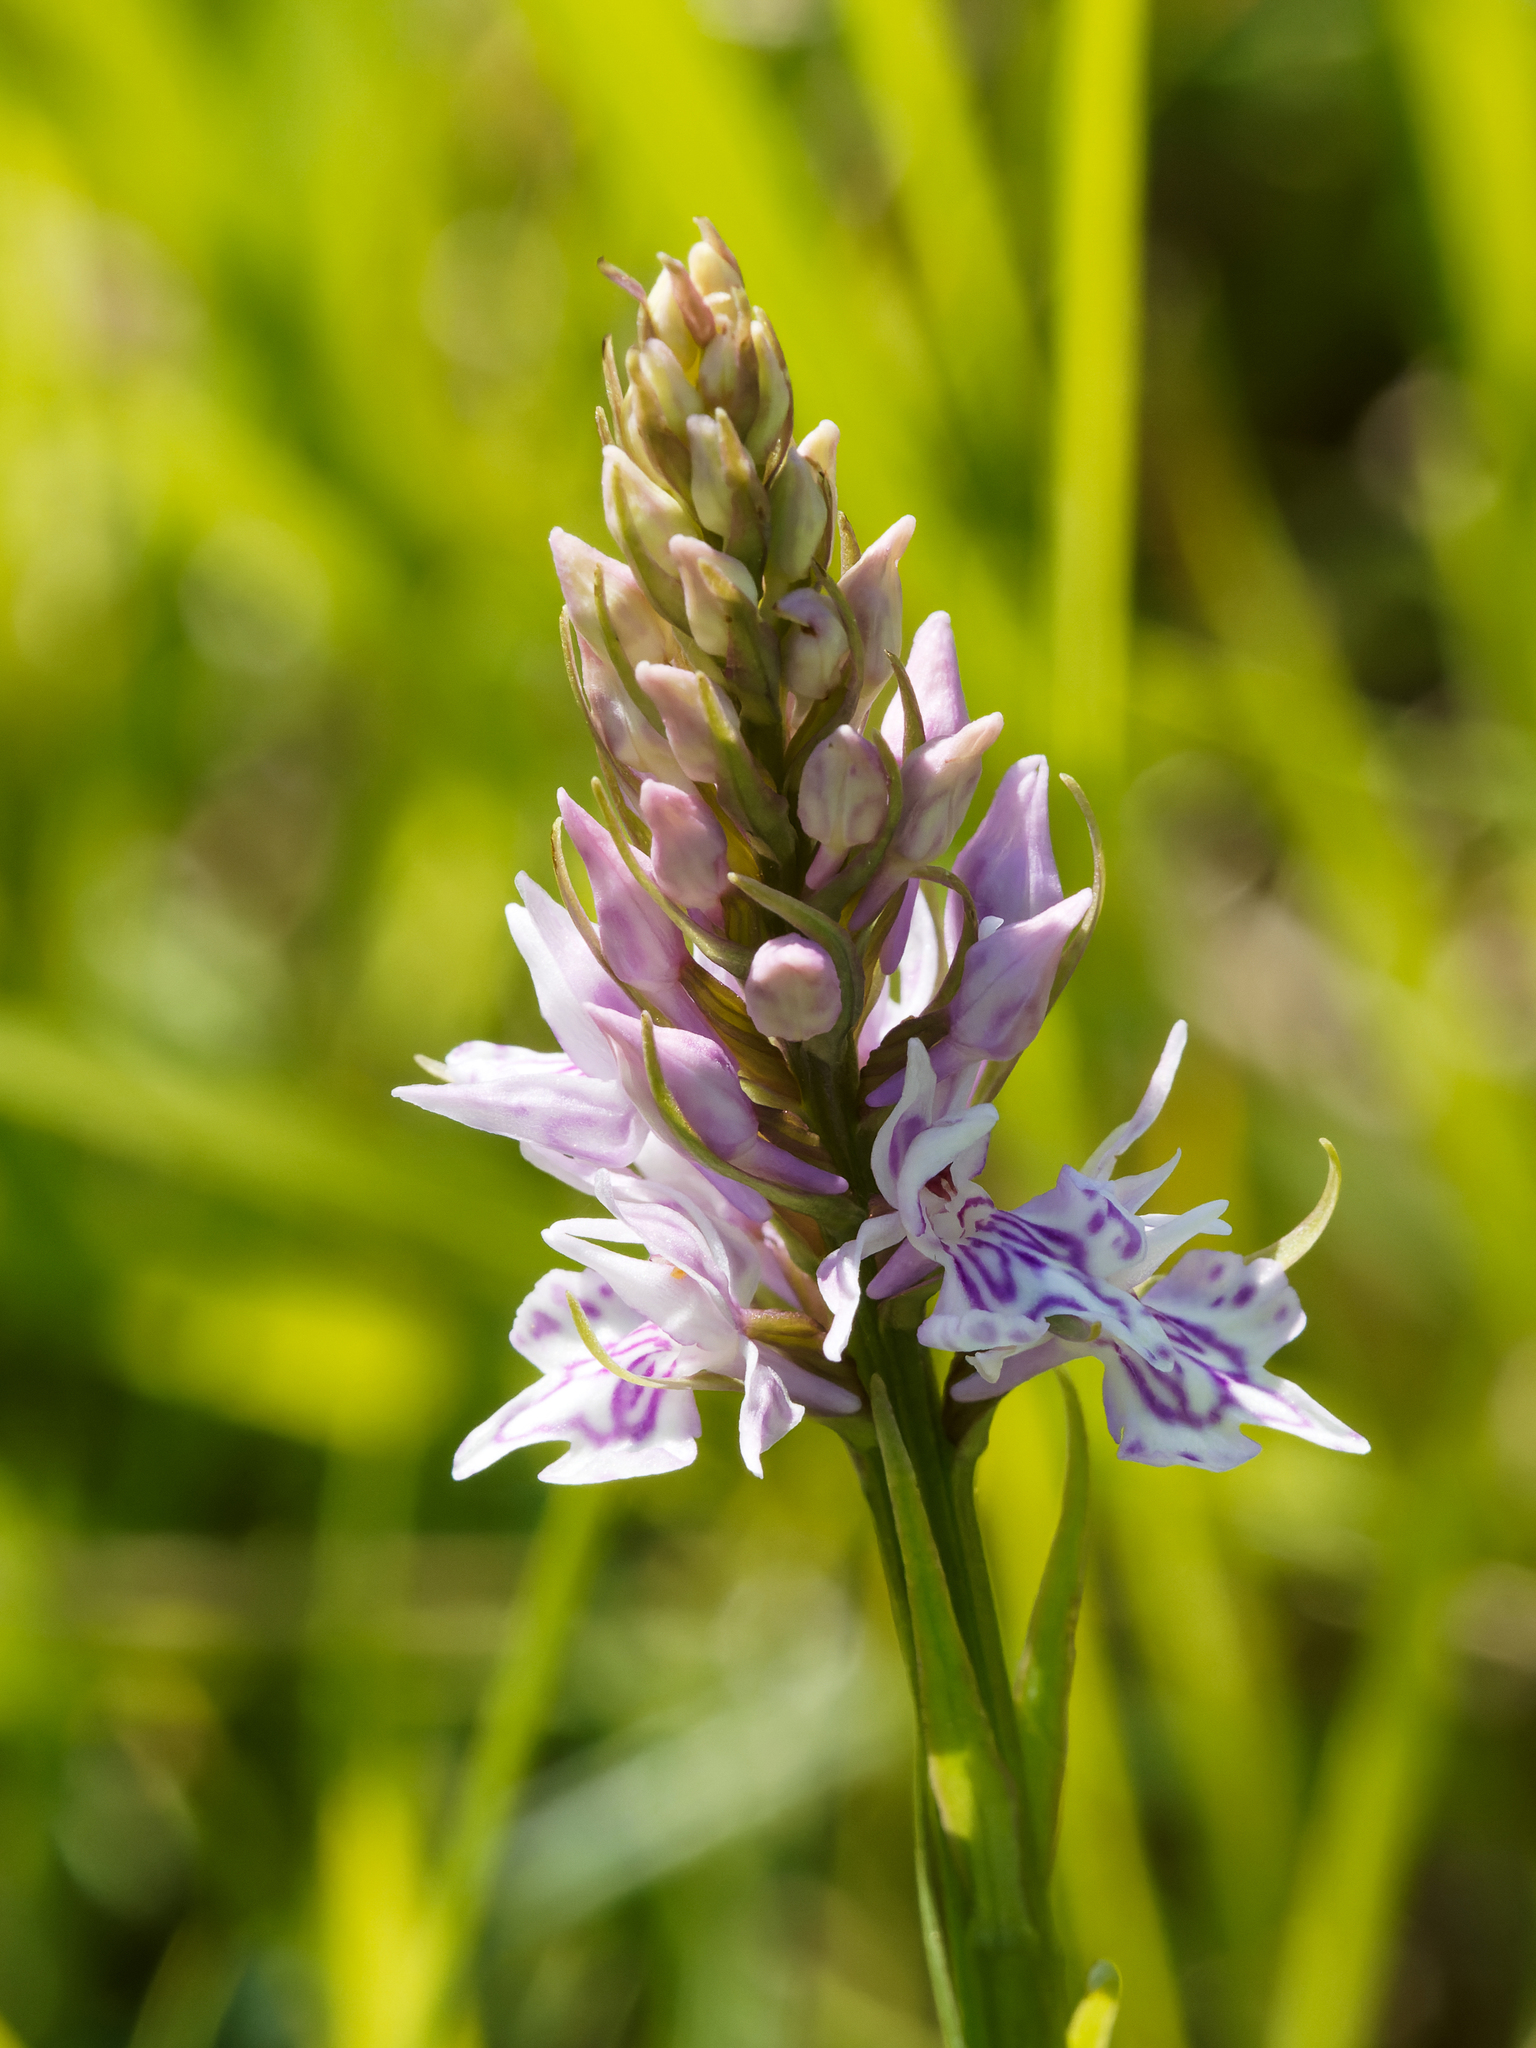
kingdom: Plantae
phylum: Tracheophyta
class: Liliopsida
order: Asparagales
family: Orchidaceae
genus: Dactylorhiza
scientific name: Dactylorhiza maculata
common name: Heath spotted-orchid
